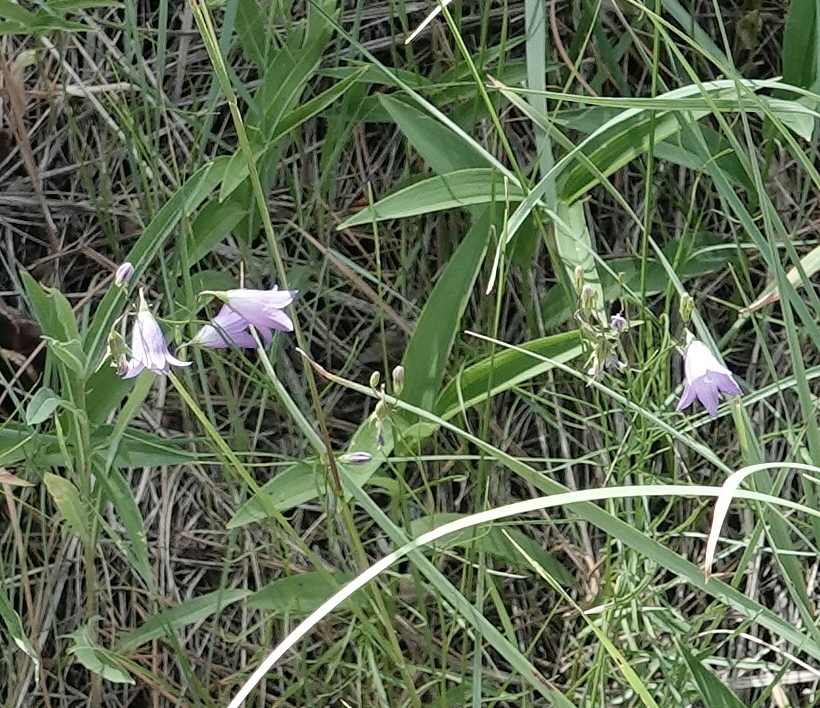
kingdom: Plantae
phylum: Tracheophyta
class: Magnoliopsida
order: Asterales
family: Campanulaceae
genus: Campanula
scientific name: Campanula petiolata
